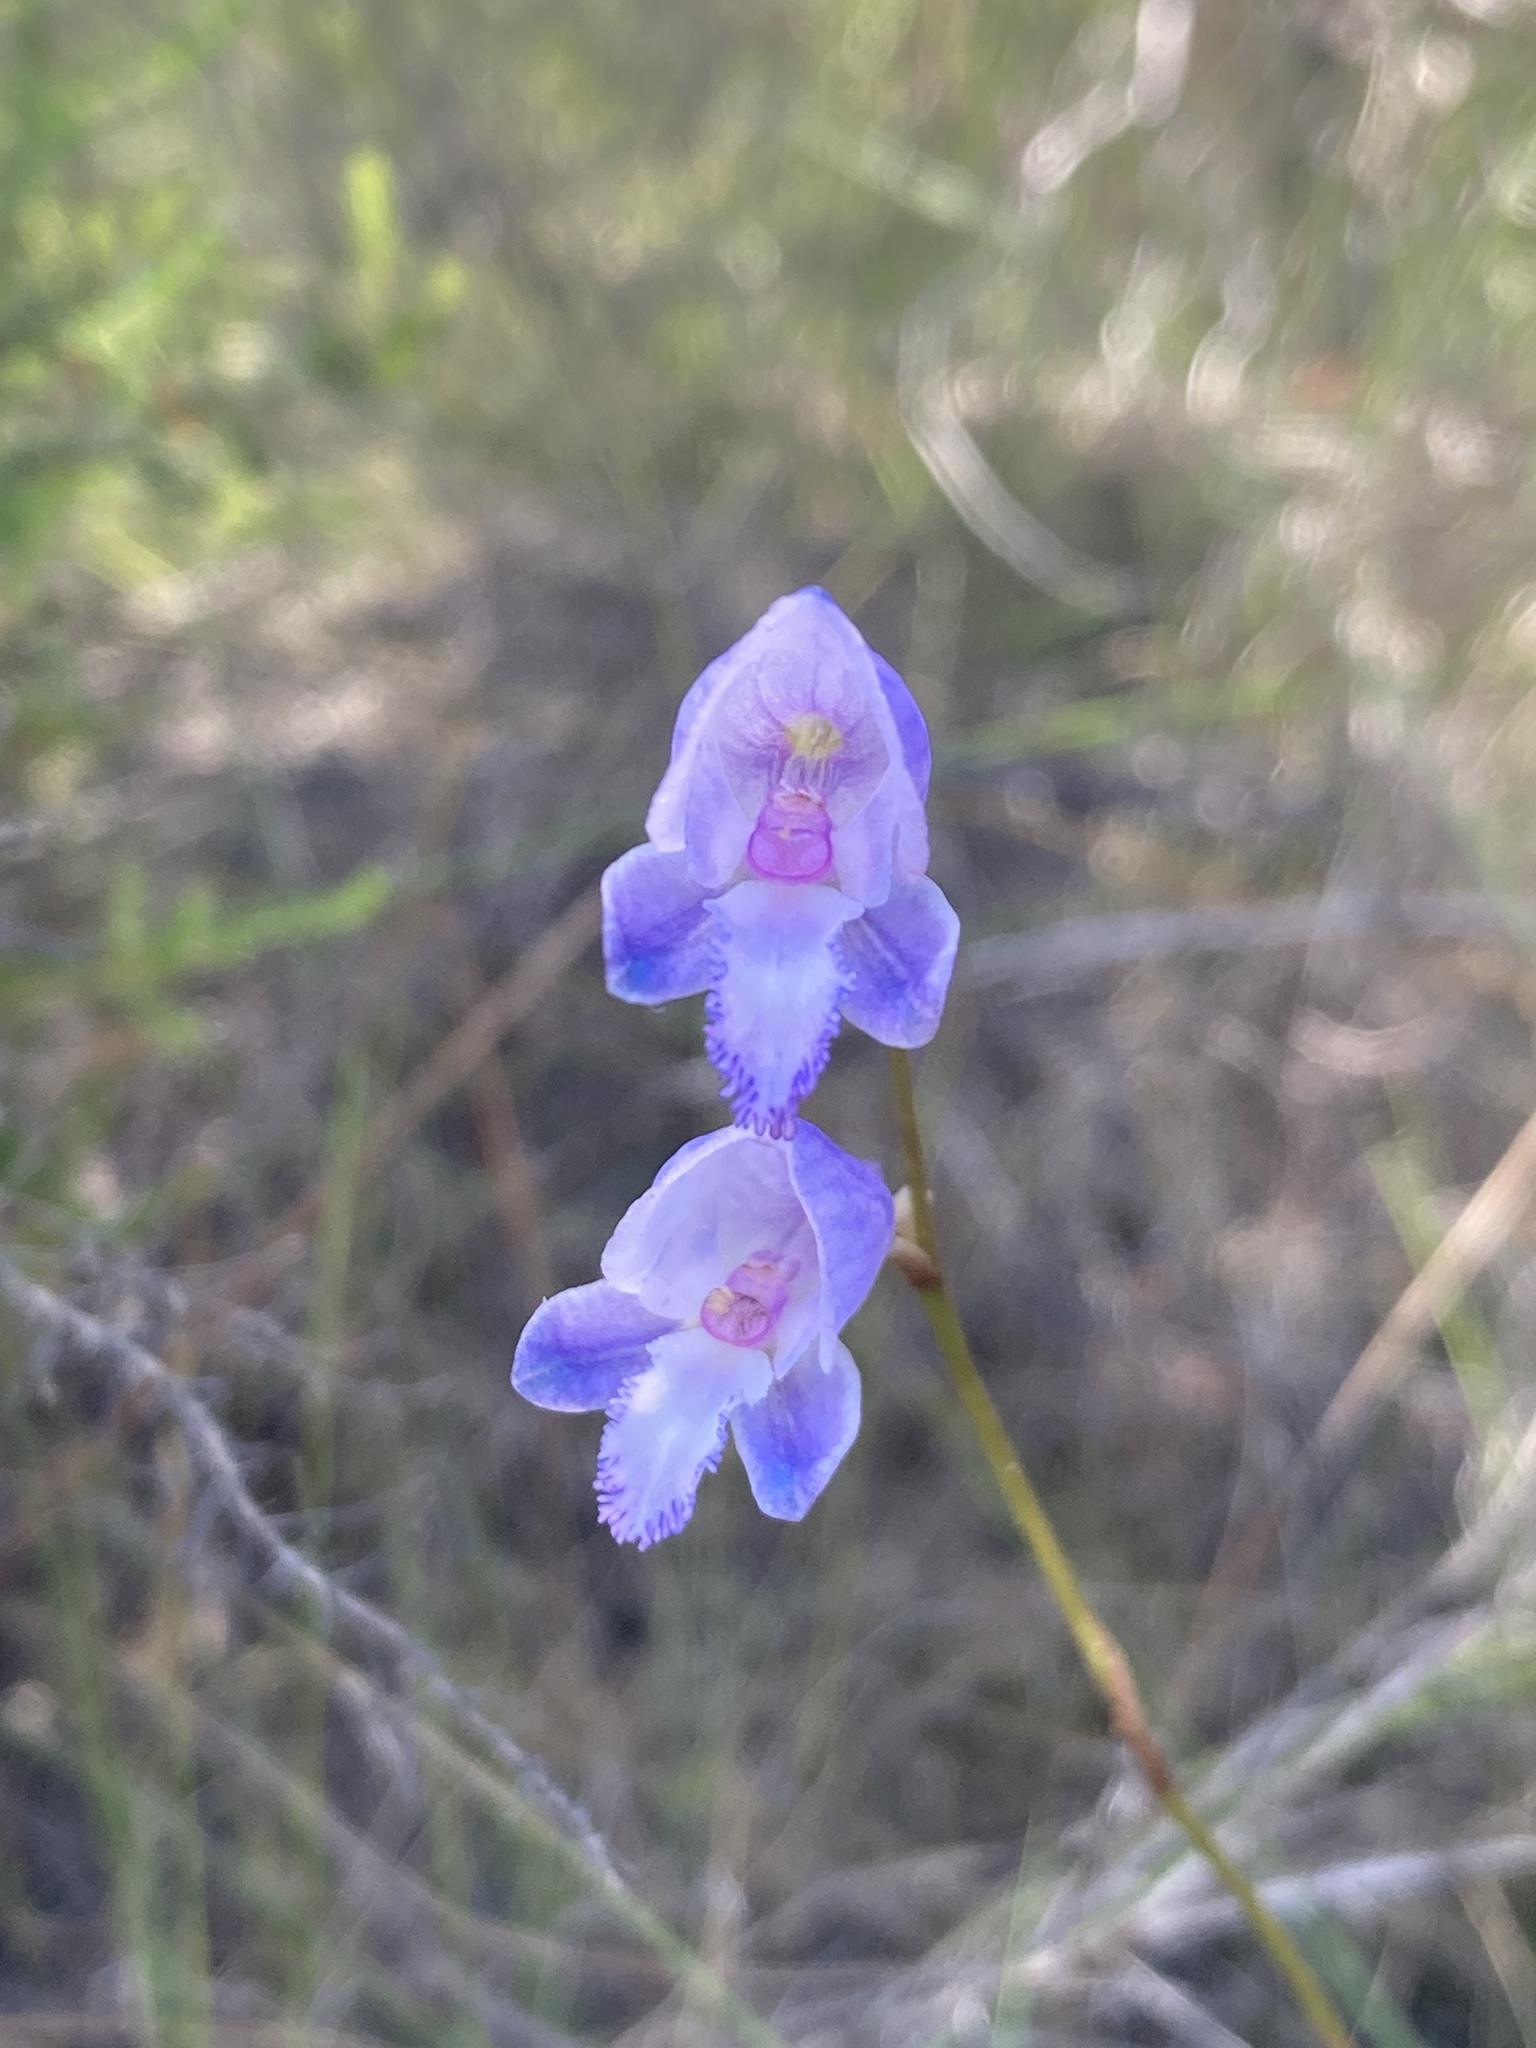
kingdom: Plantae
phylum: Tracheophyta
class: Liliopsida
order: Asparagales
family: Orchidaceae
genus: Disa
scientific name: Disa hians
